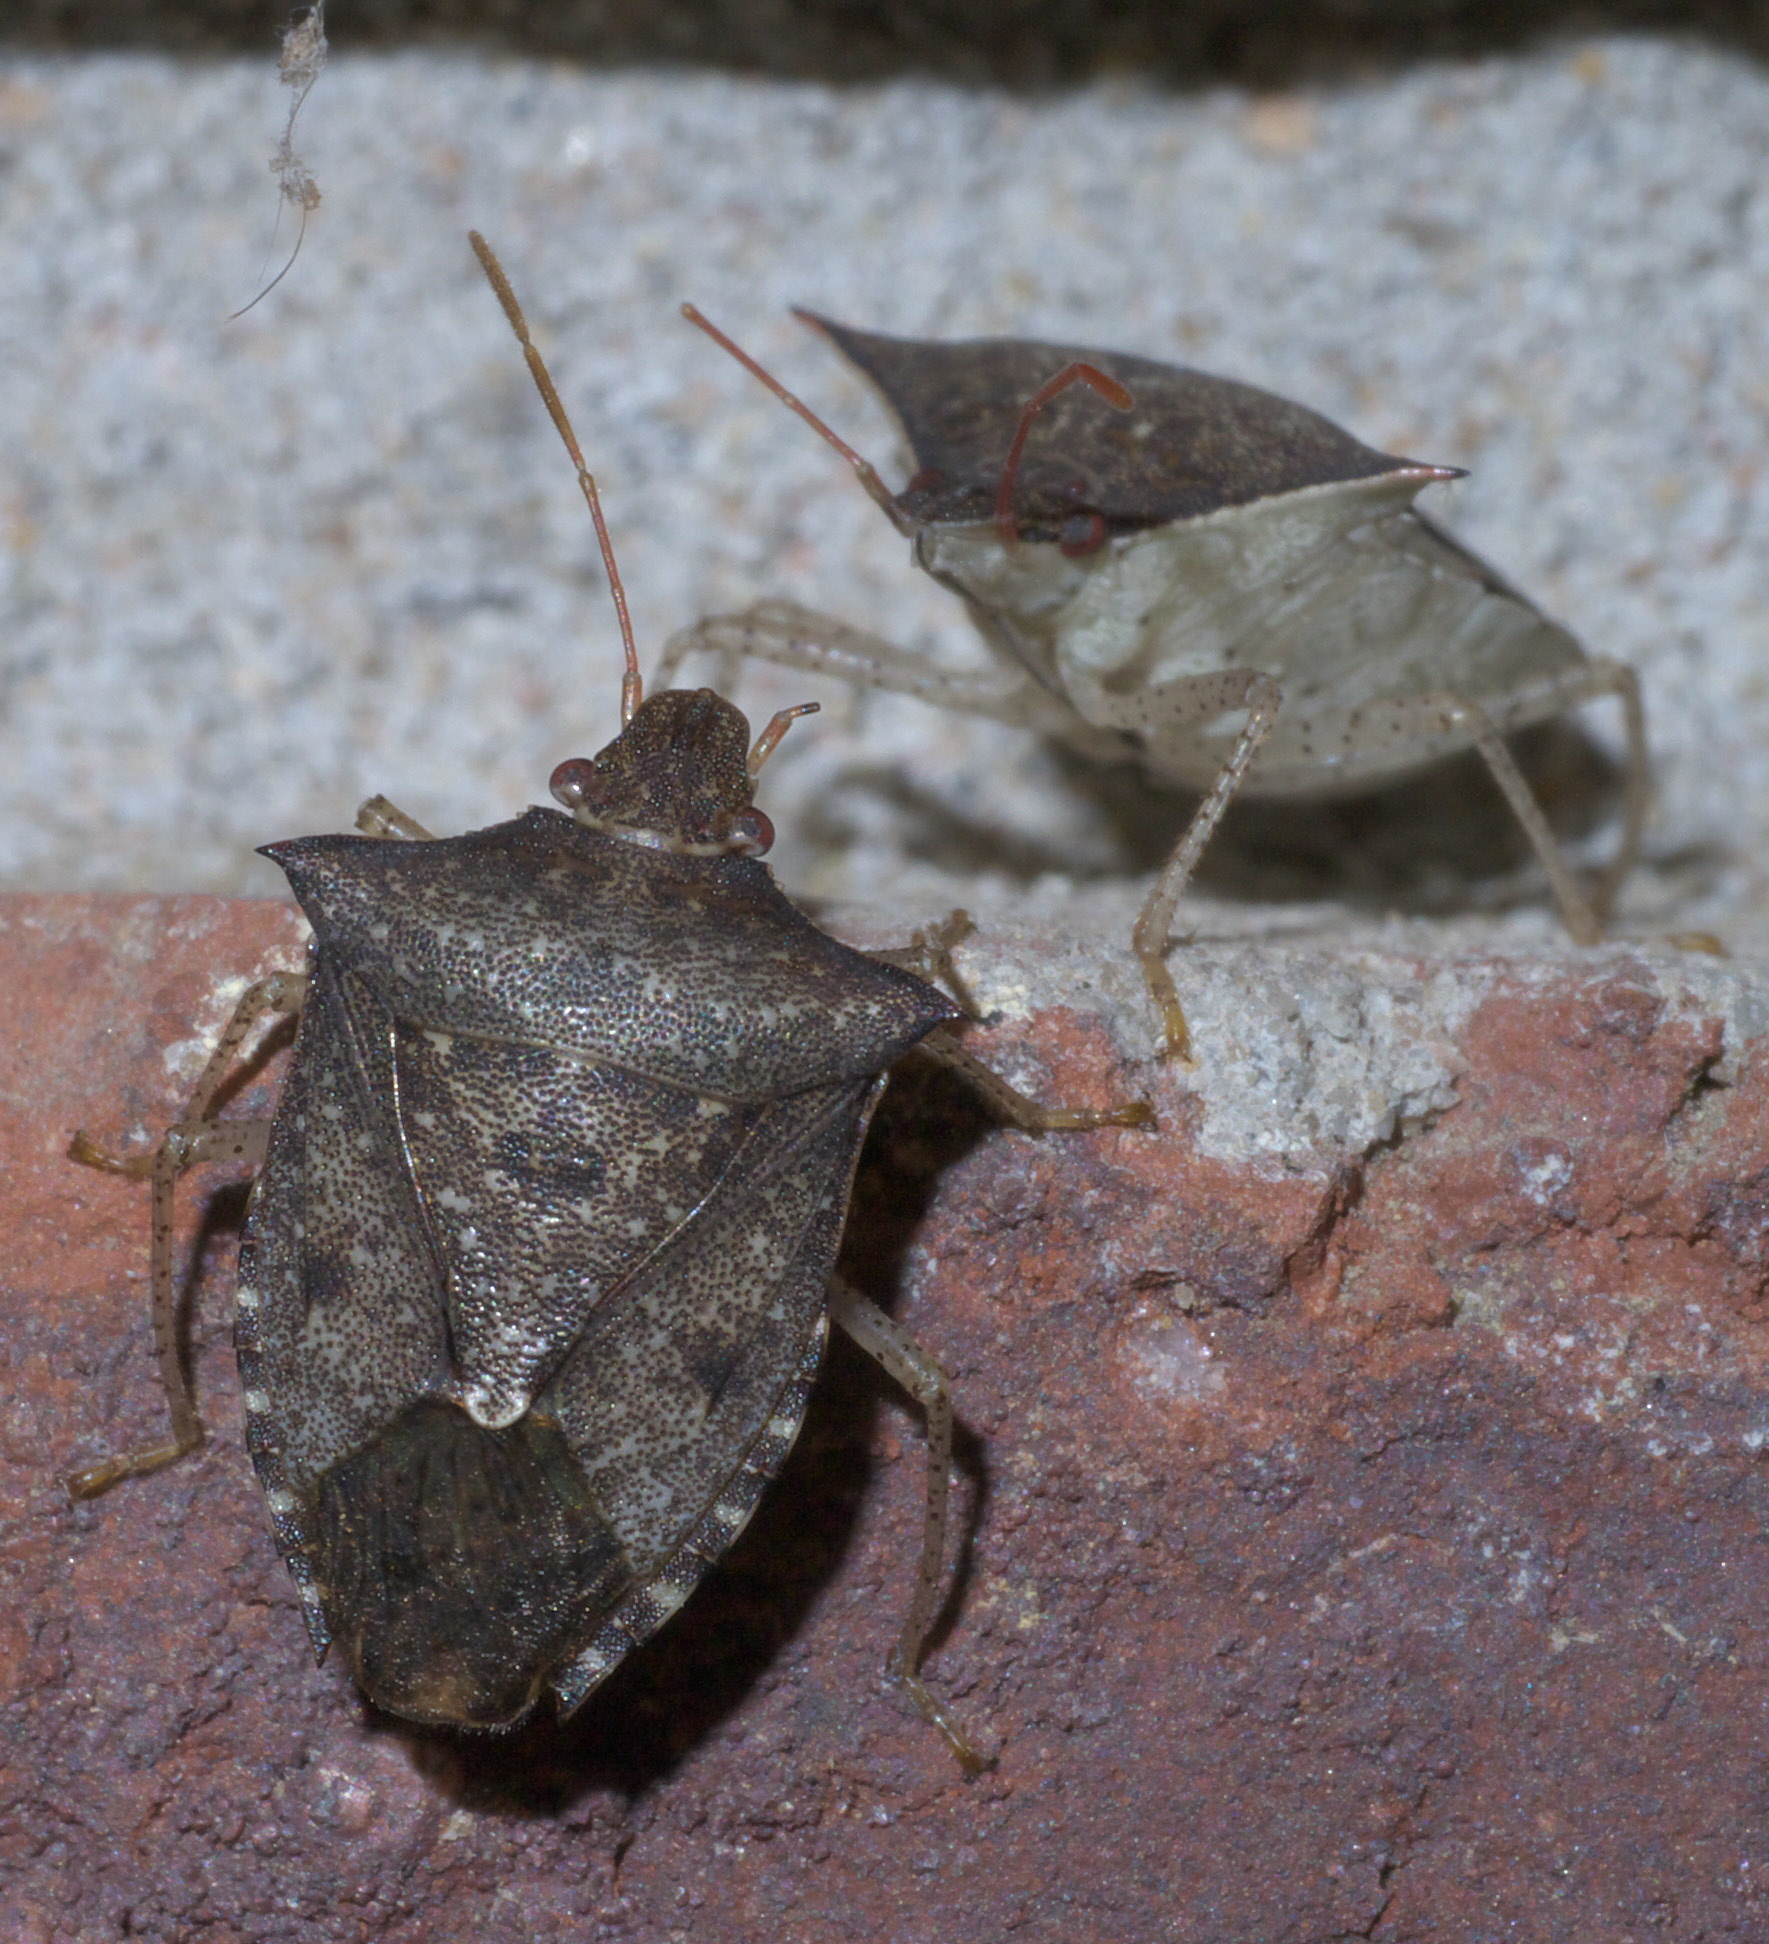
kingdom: Animalia
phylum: Arthropoda
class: Insecta
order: Hemiptera
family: Pentatomidae
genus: Euschistus
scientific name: Euschistus tristigmus
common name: Dusky stink bug
